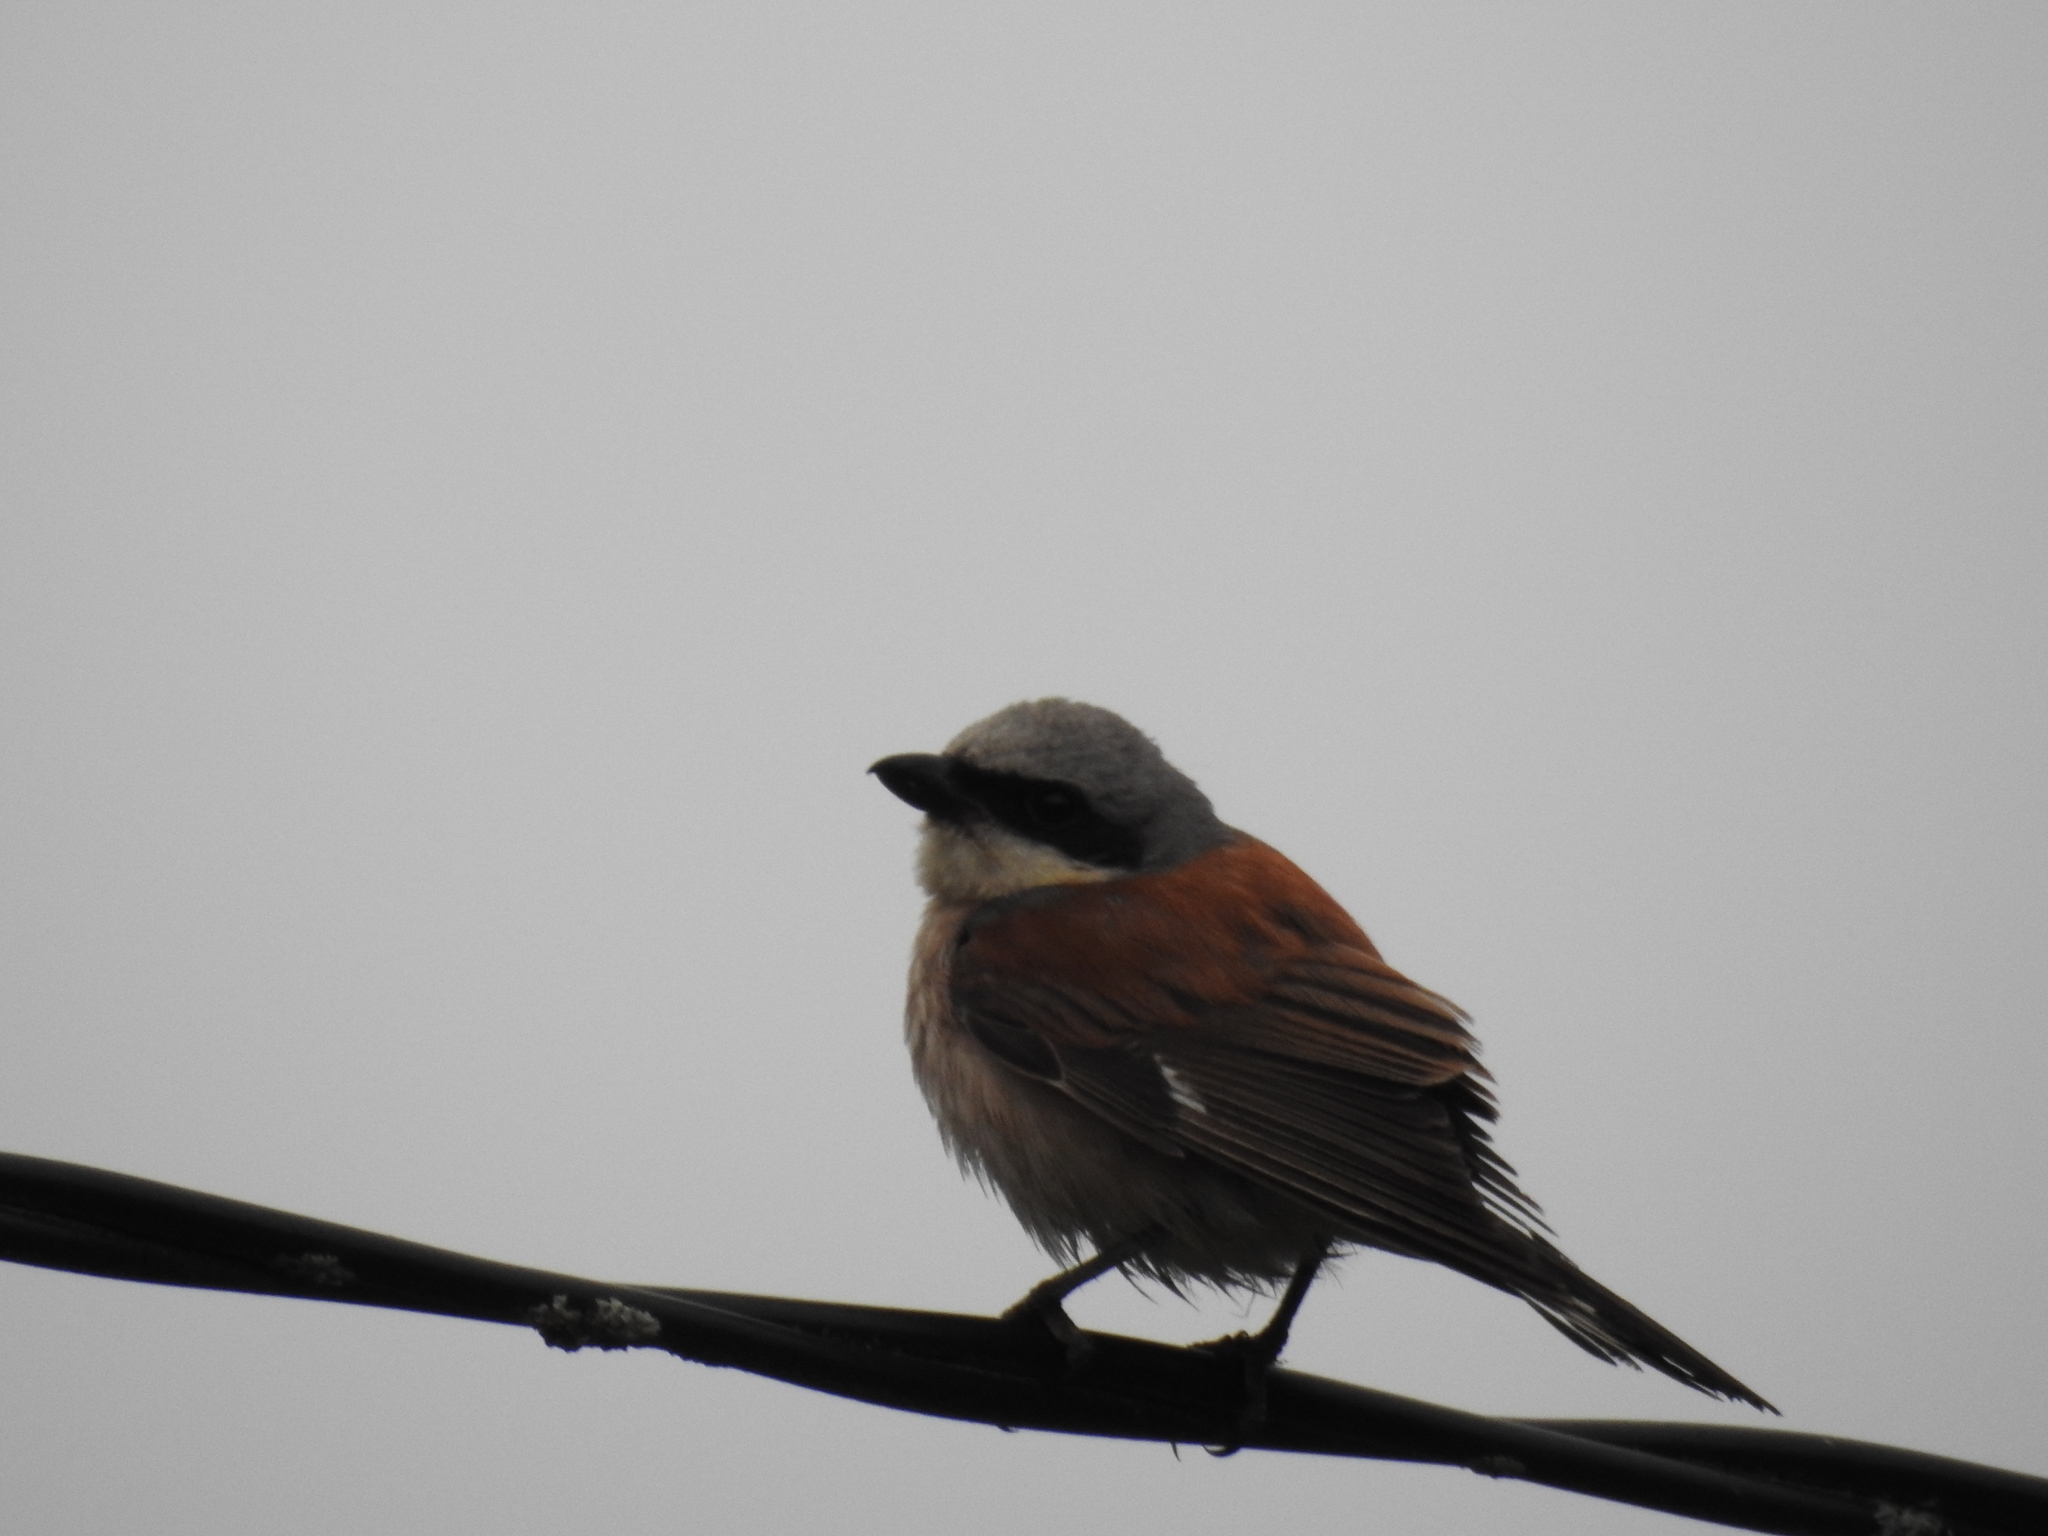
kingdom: Animalia
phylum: Chordata
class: Aves
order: Passeriformes
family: Laniidae
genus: Lanius
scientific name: Lanius collurio
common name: Red-backed shrike
